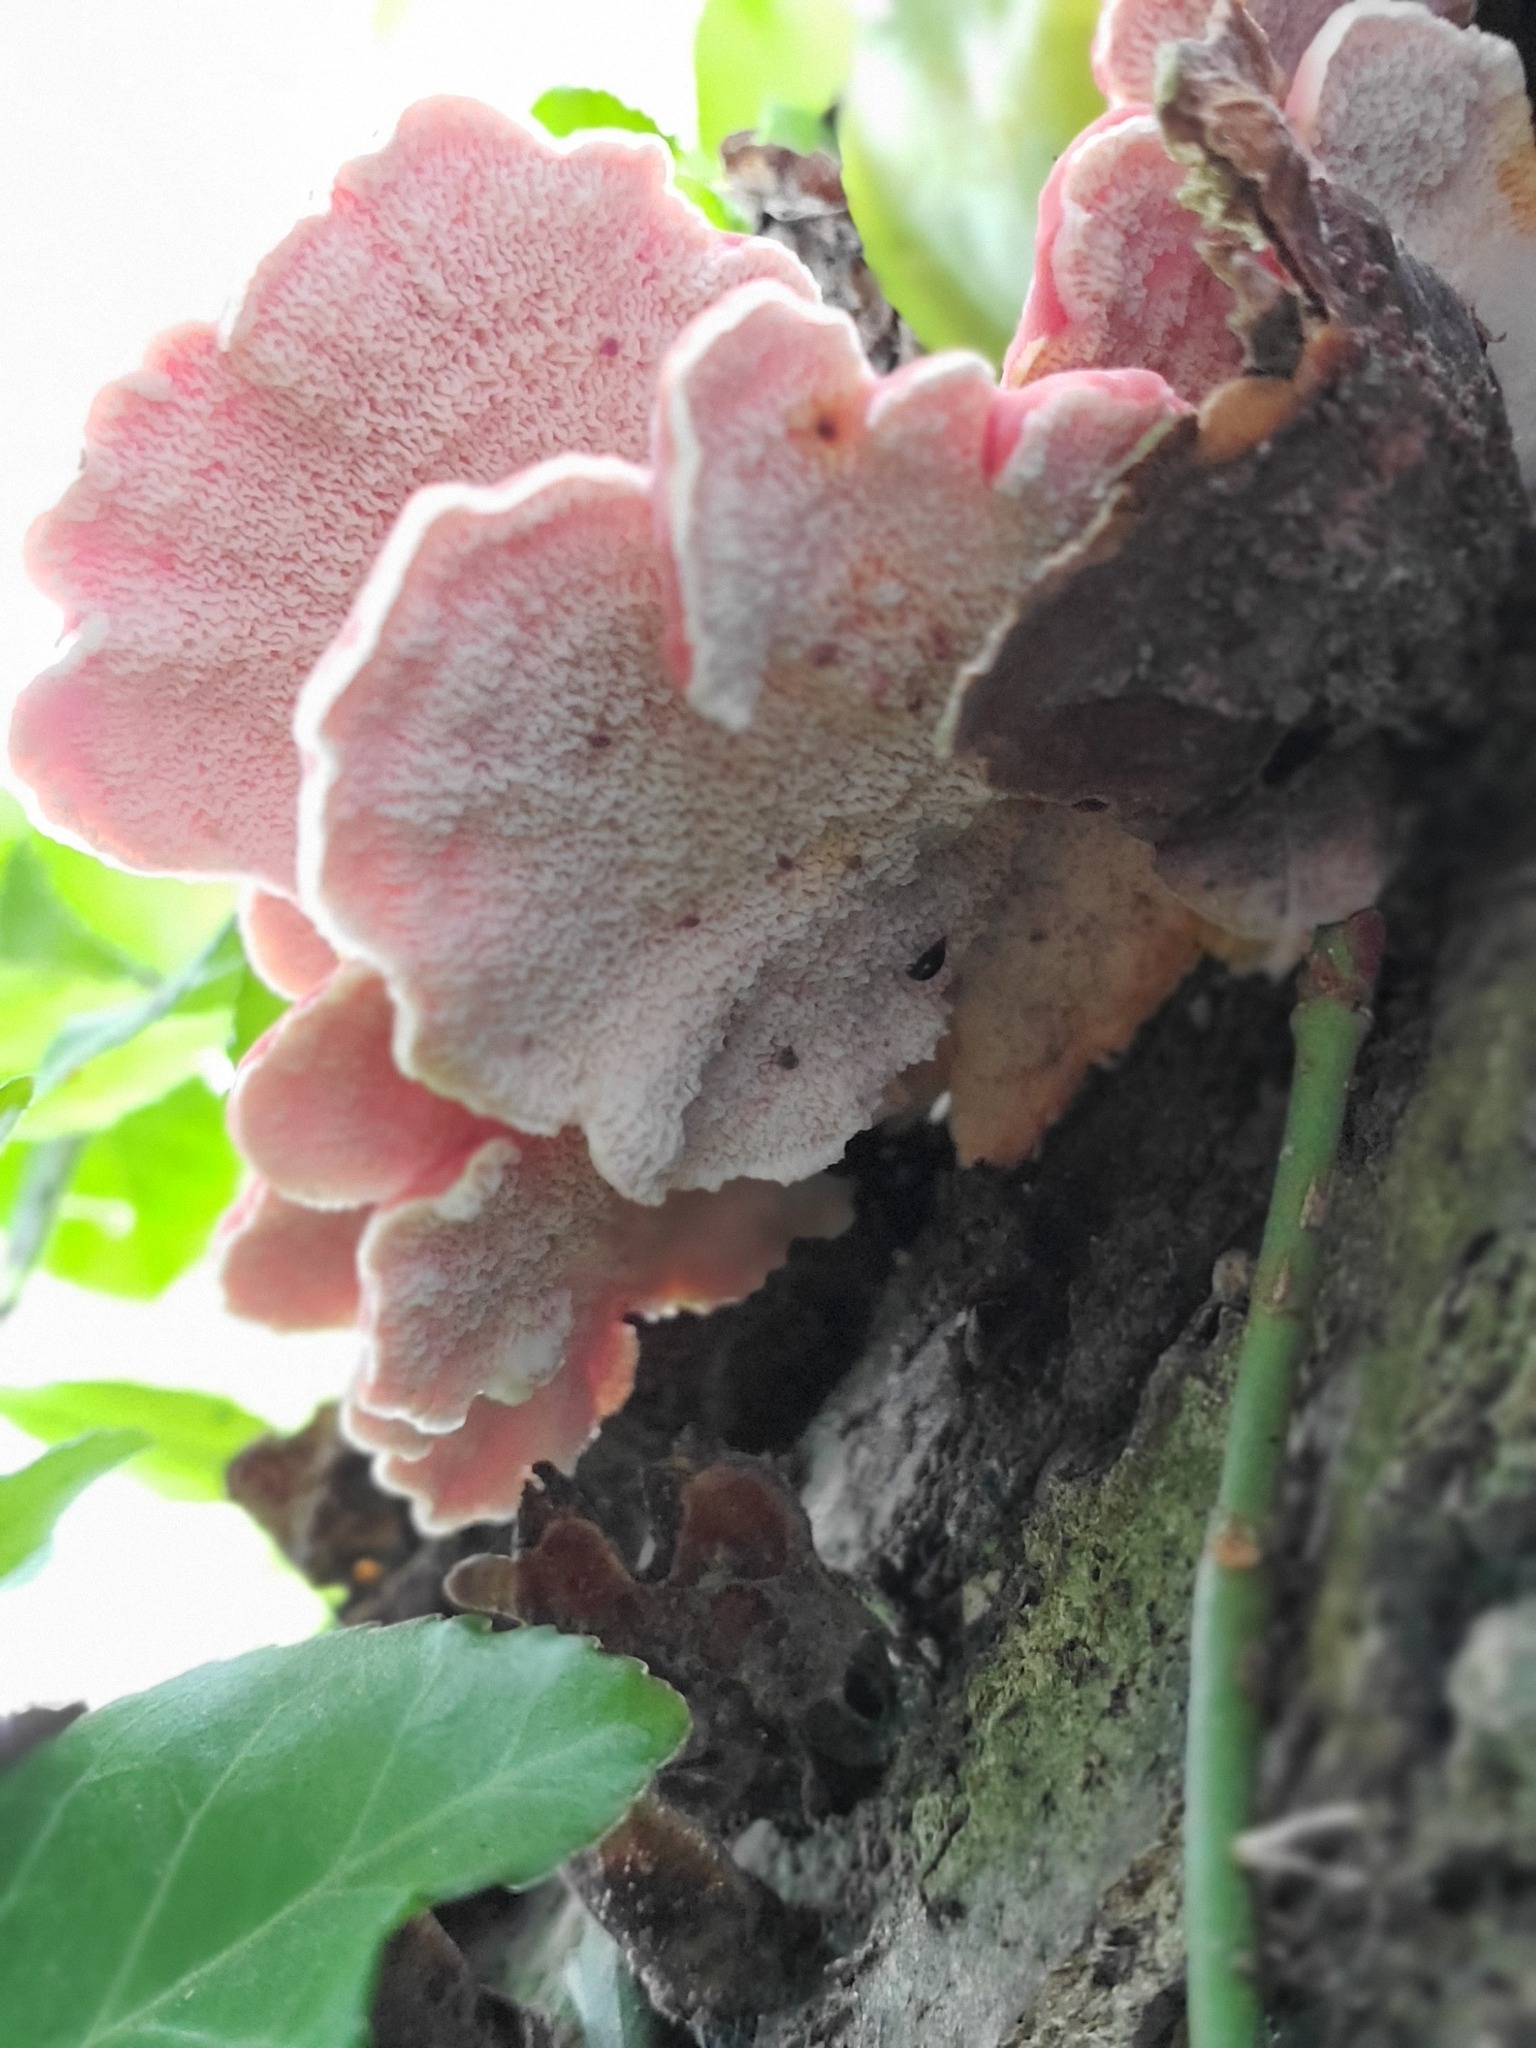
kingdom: Fungi
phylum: Basidiomycota
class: Agaricomycetes
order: Polyporales
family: Irpicaceae
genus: Byssomerulius
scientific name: Byssomerulius incarnatus
